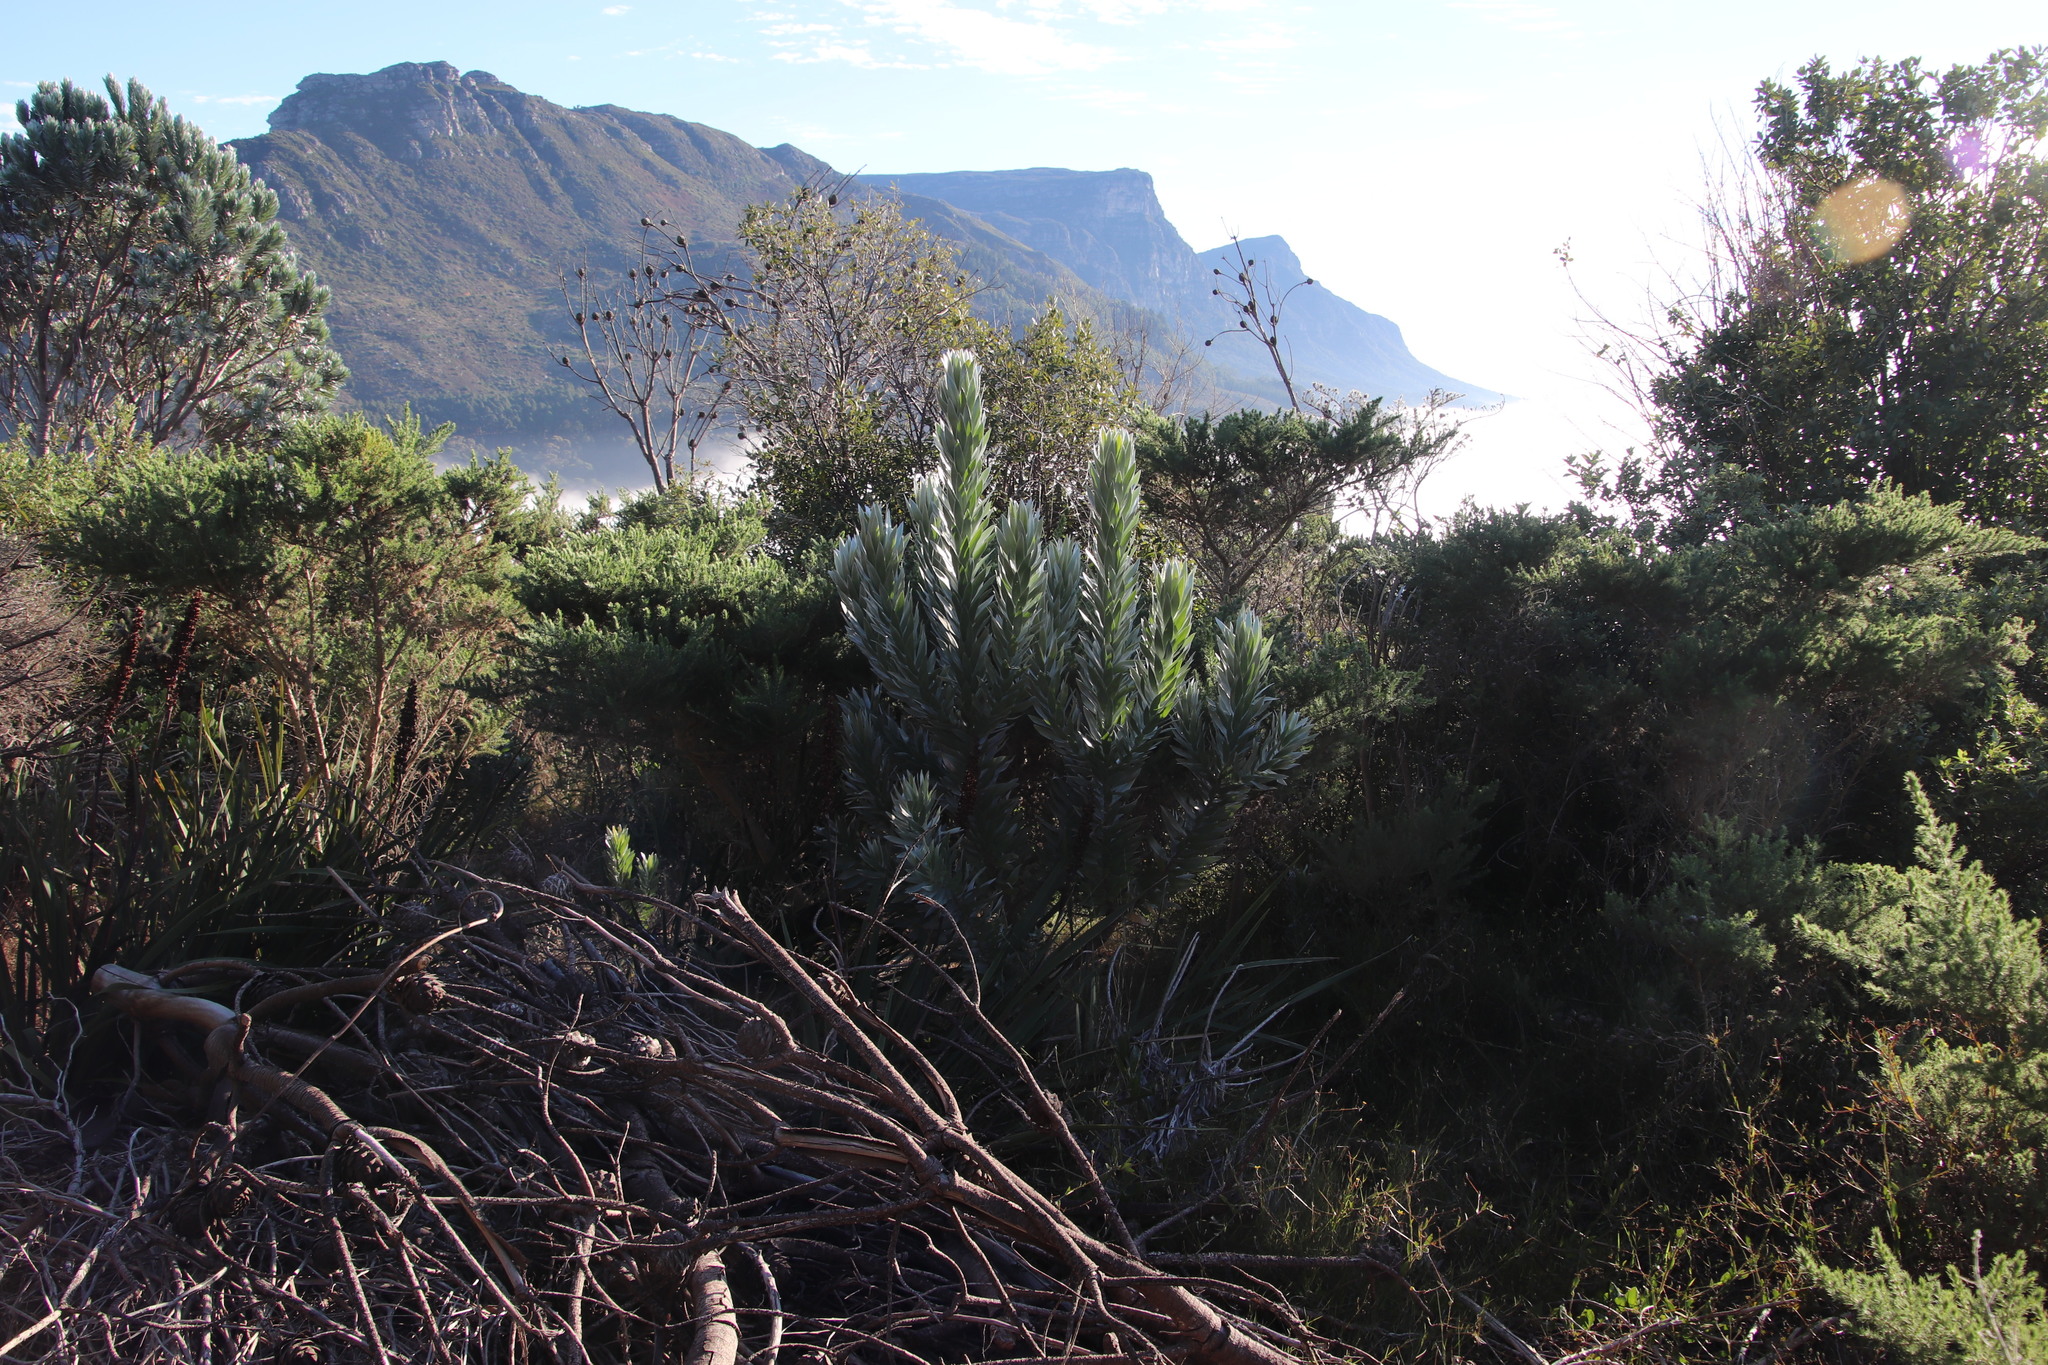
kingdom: Plantae
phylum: Tracheophyta
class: Magnoliopsida
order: Proteales
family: Proteaceae
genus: Leucadendron
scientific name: Leucadendron argenteum
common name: Cape silver tree
